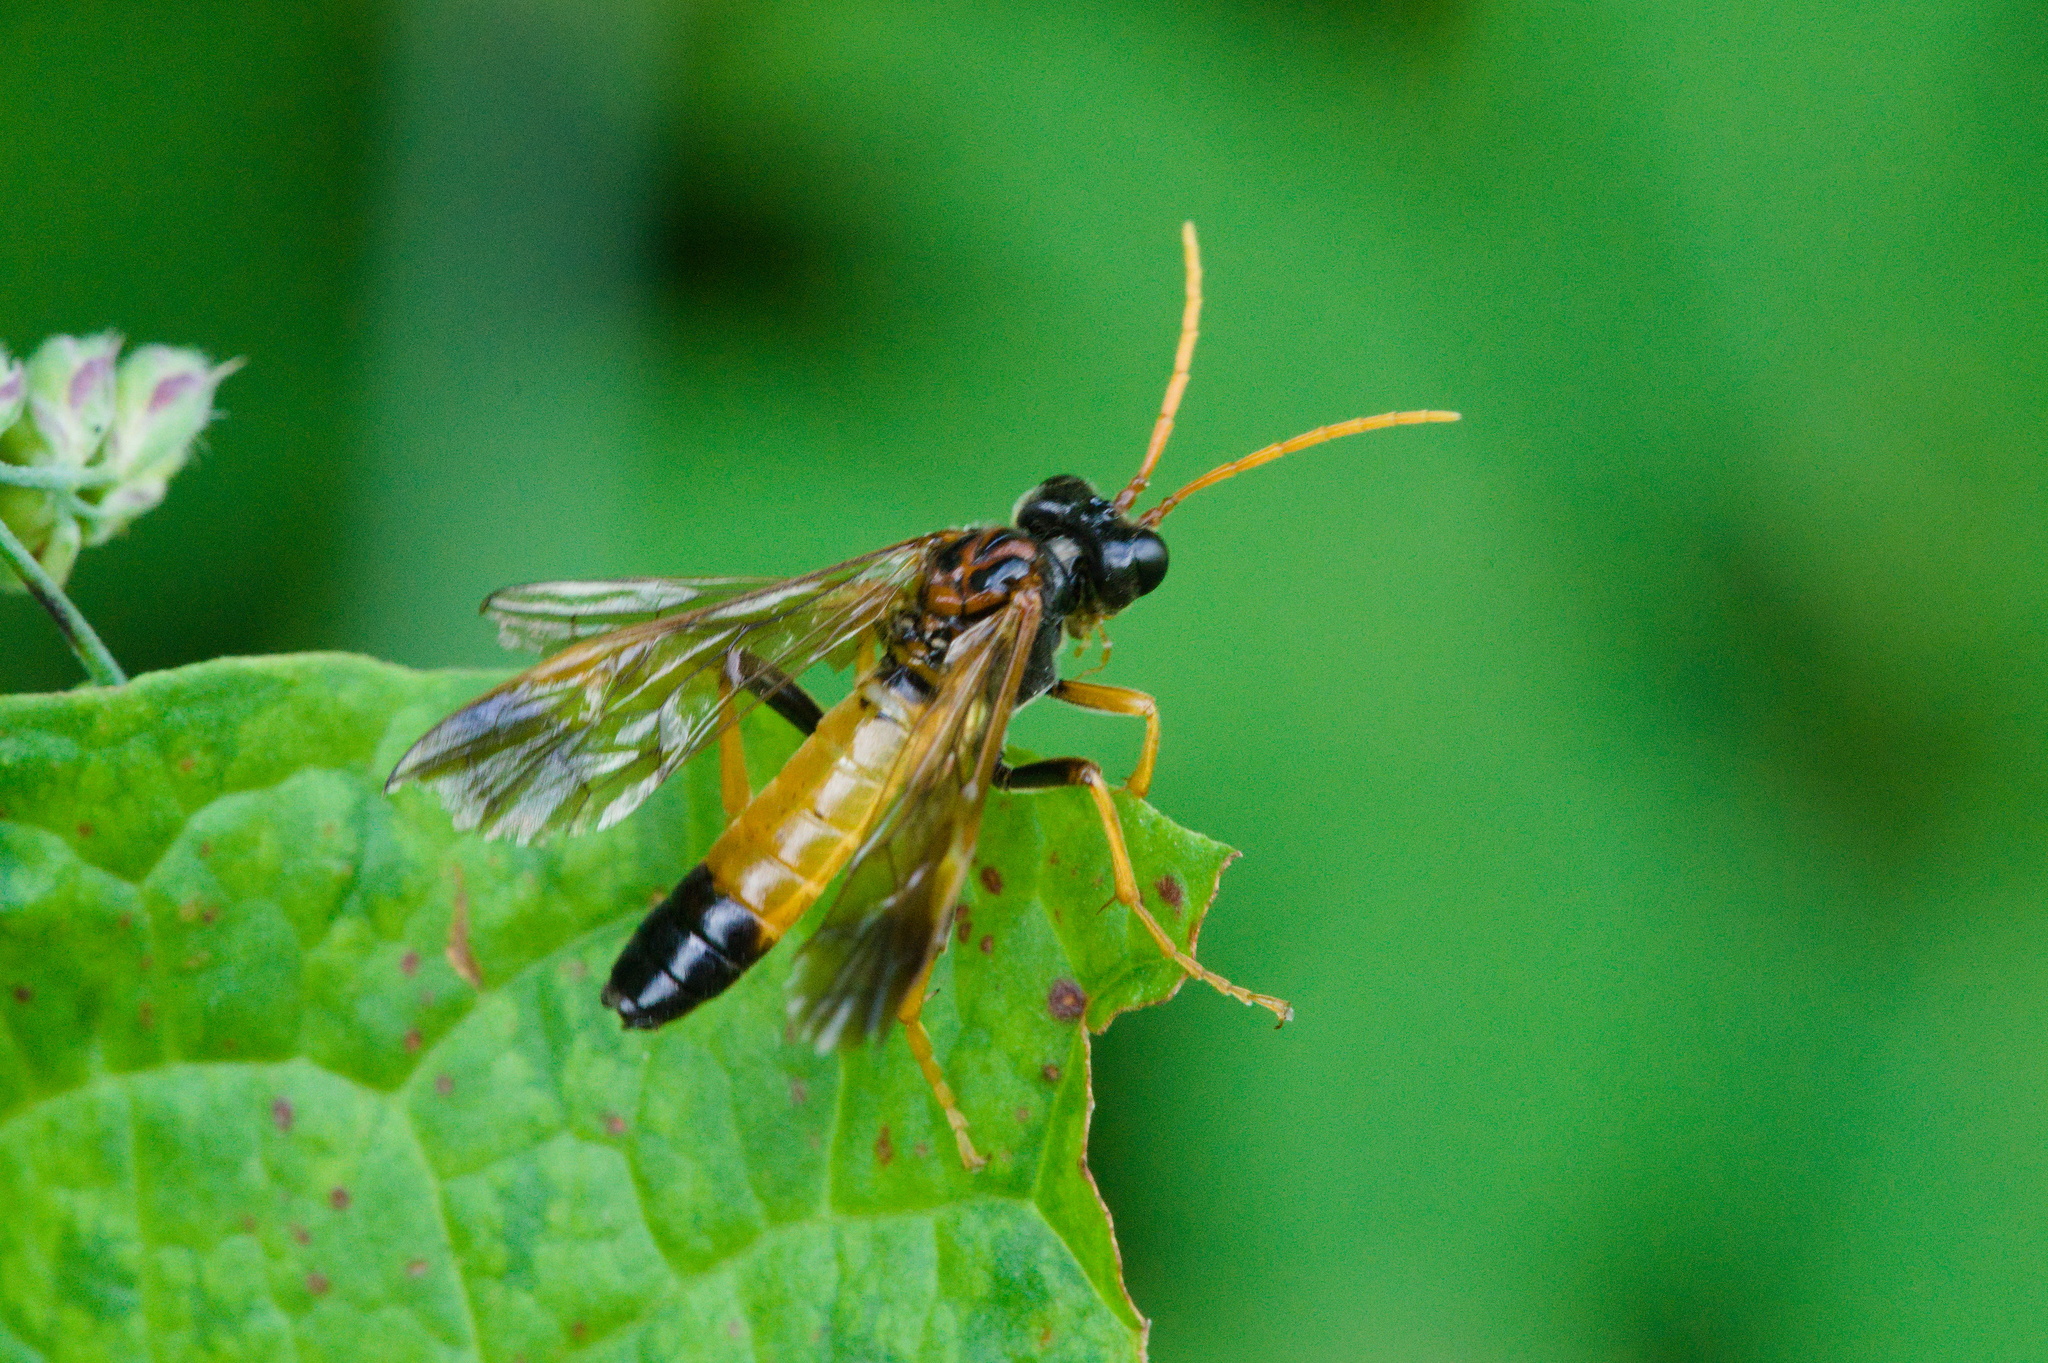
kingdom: Animalia
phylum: Arthropoda
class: Insecta
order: Hymenoptera
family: Tenthredinidae
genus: Tenthredo
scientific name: Tenthredo campestris
